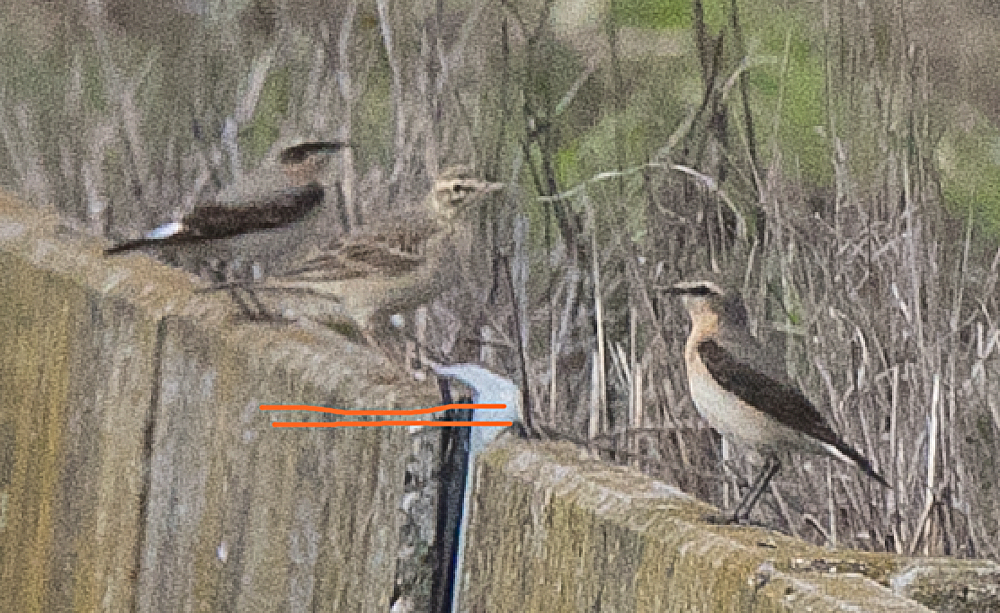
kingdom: Animalia
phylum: Chordata
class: Aves
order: Passeriformes
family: Motacillidae
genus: Anthus
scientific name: Anthus campestris
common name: Tawny pipit
